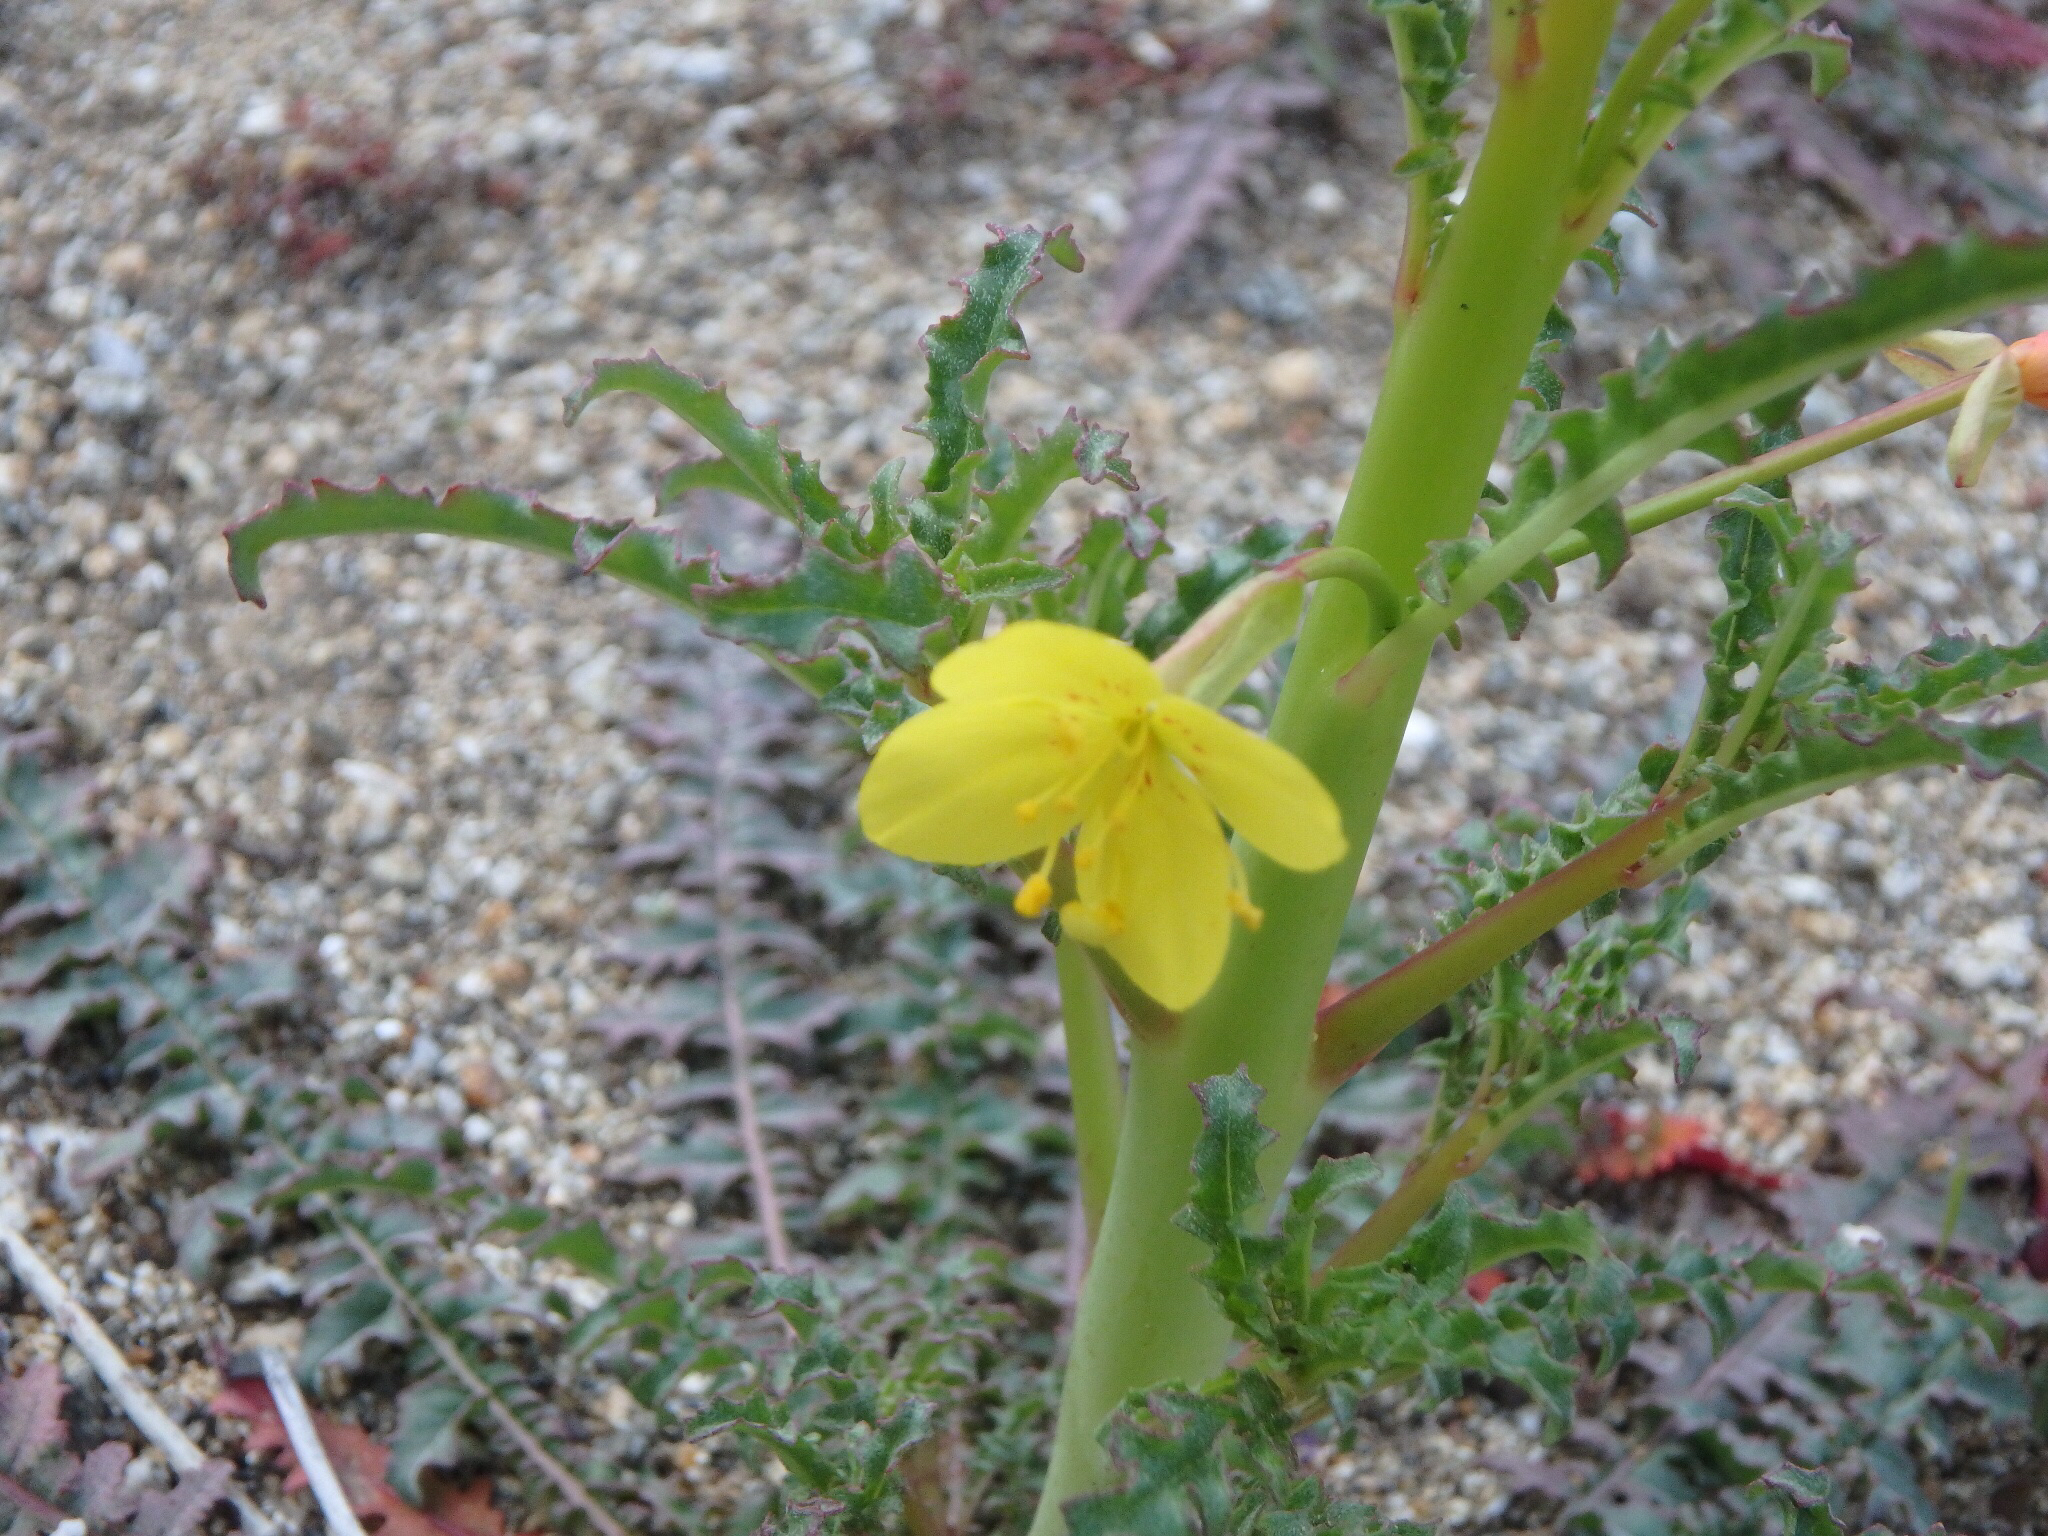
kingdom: Plantae
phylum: Tracheophyta
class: Magnoliopsida
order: Myrtales
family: Onagraceae
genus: Eulobus
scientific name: Eulobus californicus
